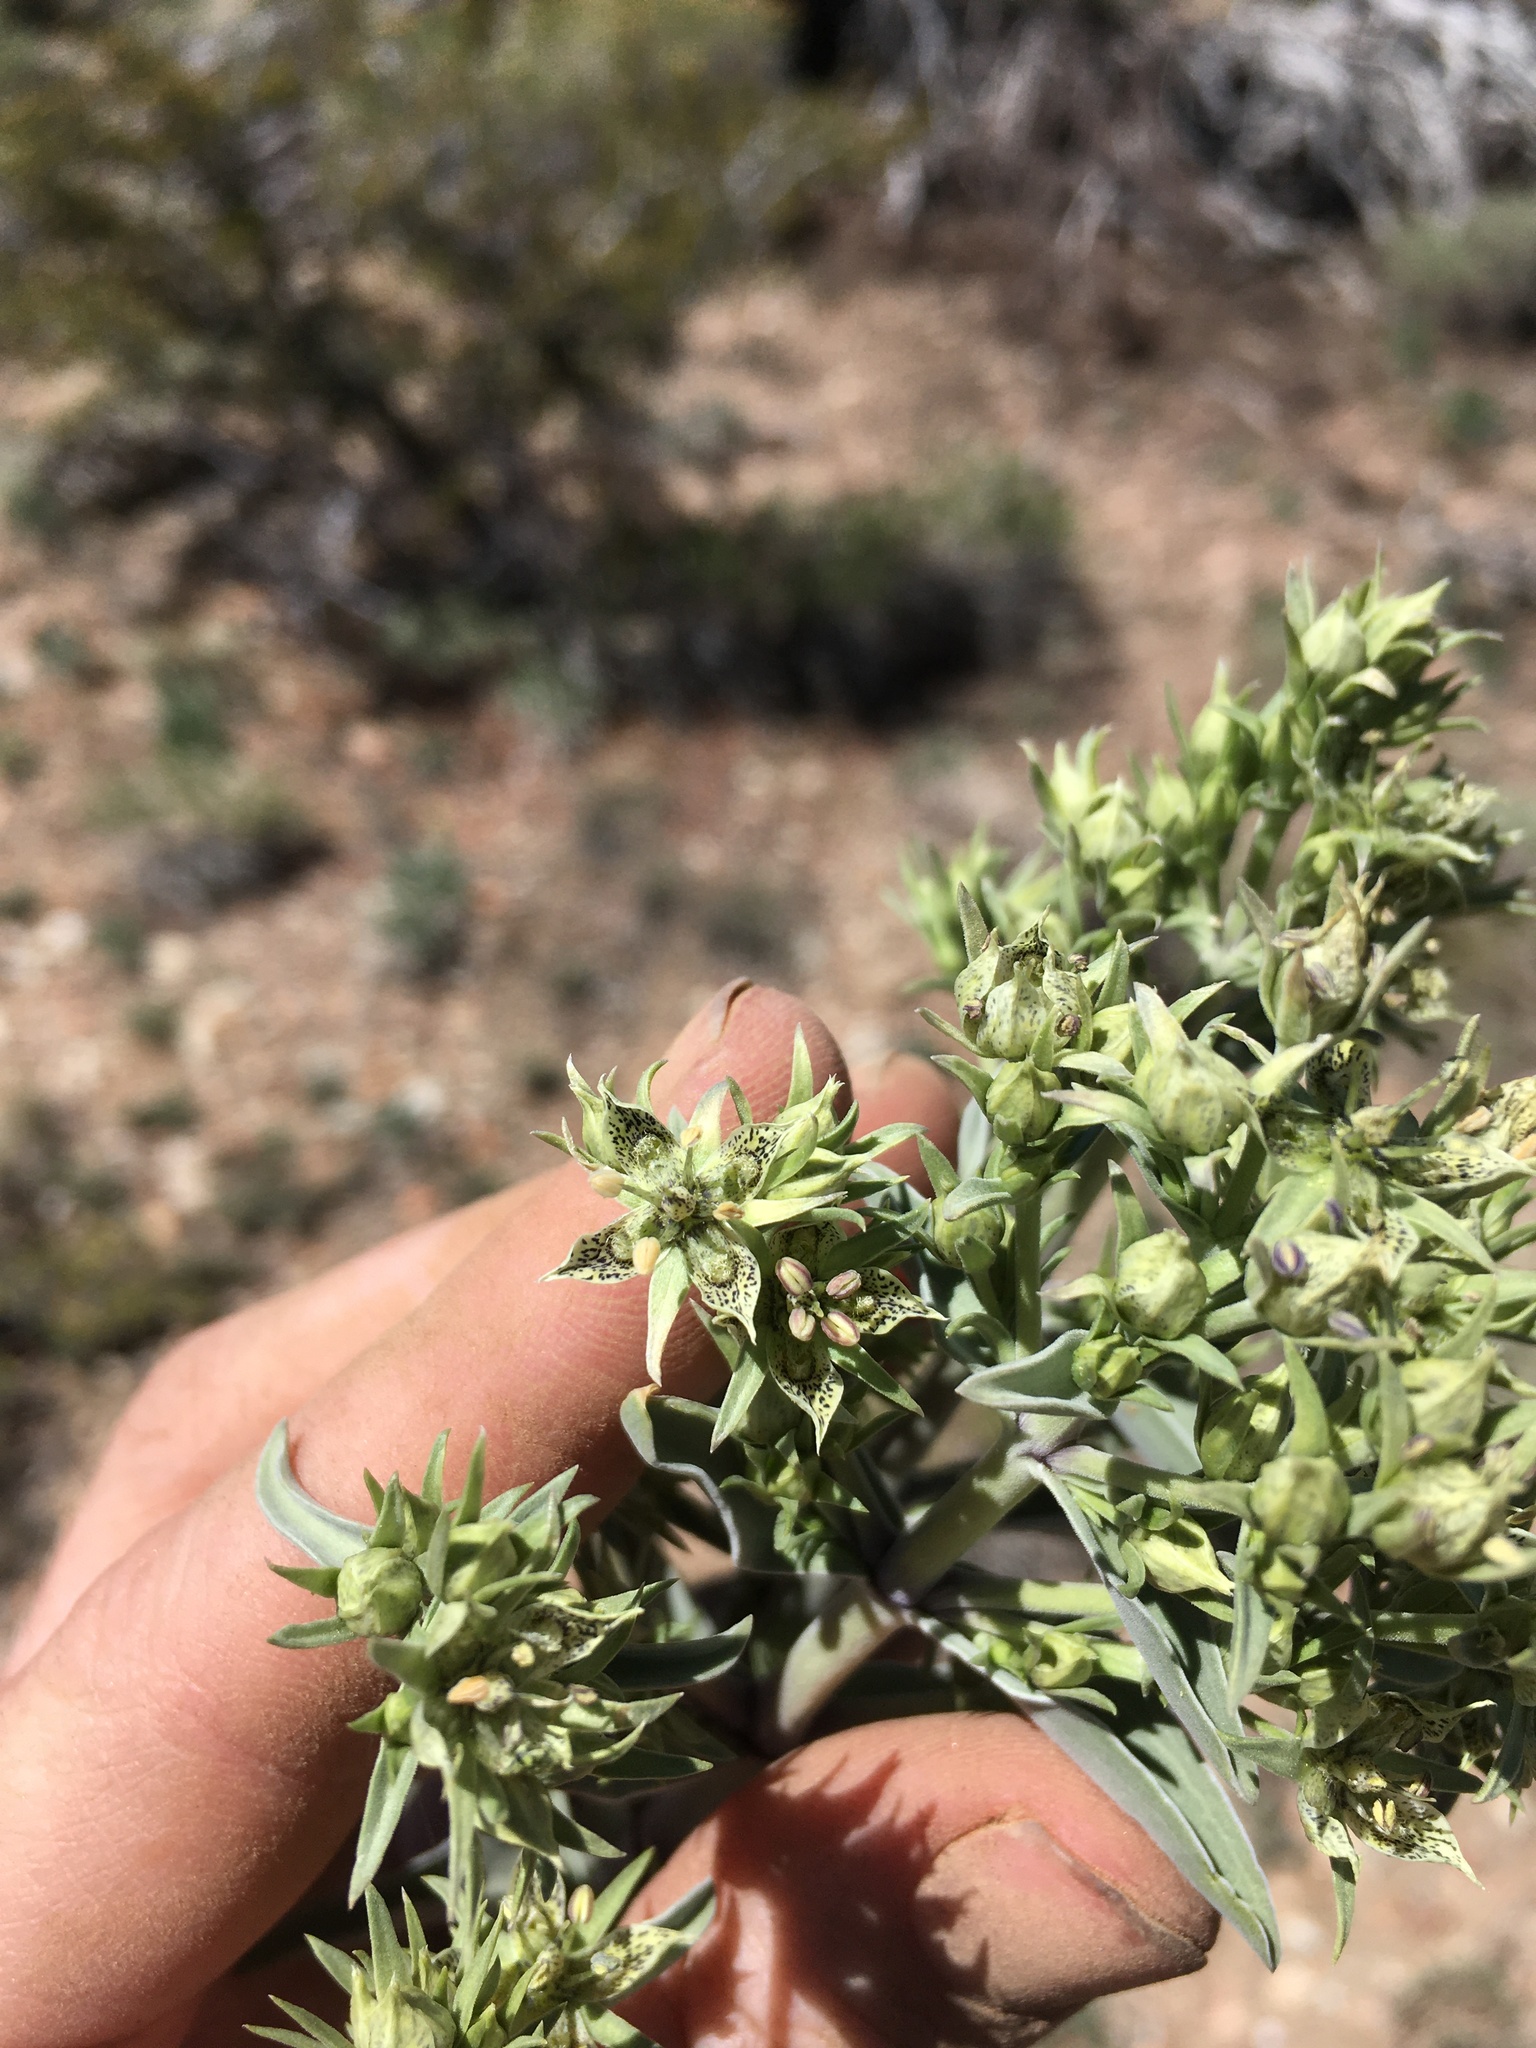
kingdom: Plantae
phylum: Tracheophyta
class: Magnoliopsida
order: Gentianales
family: Gentianaceae
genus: Frasera
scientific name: Frasera puberulenta
